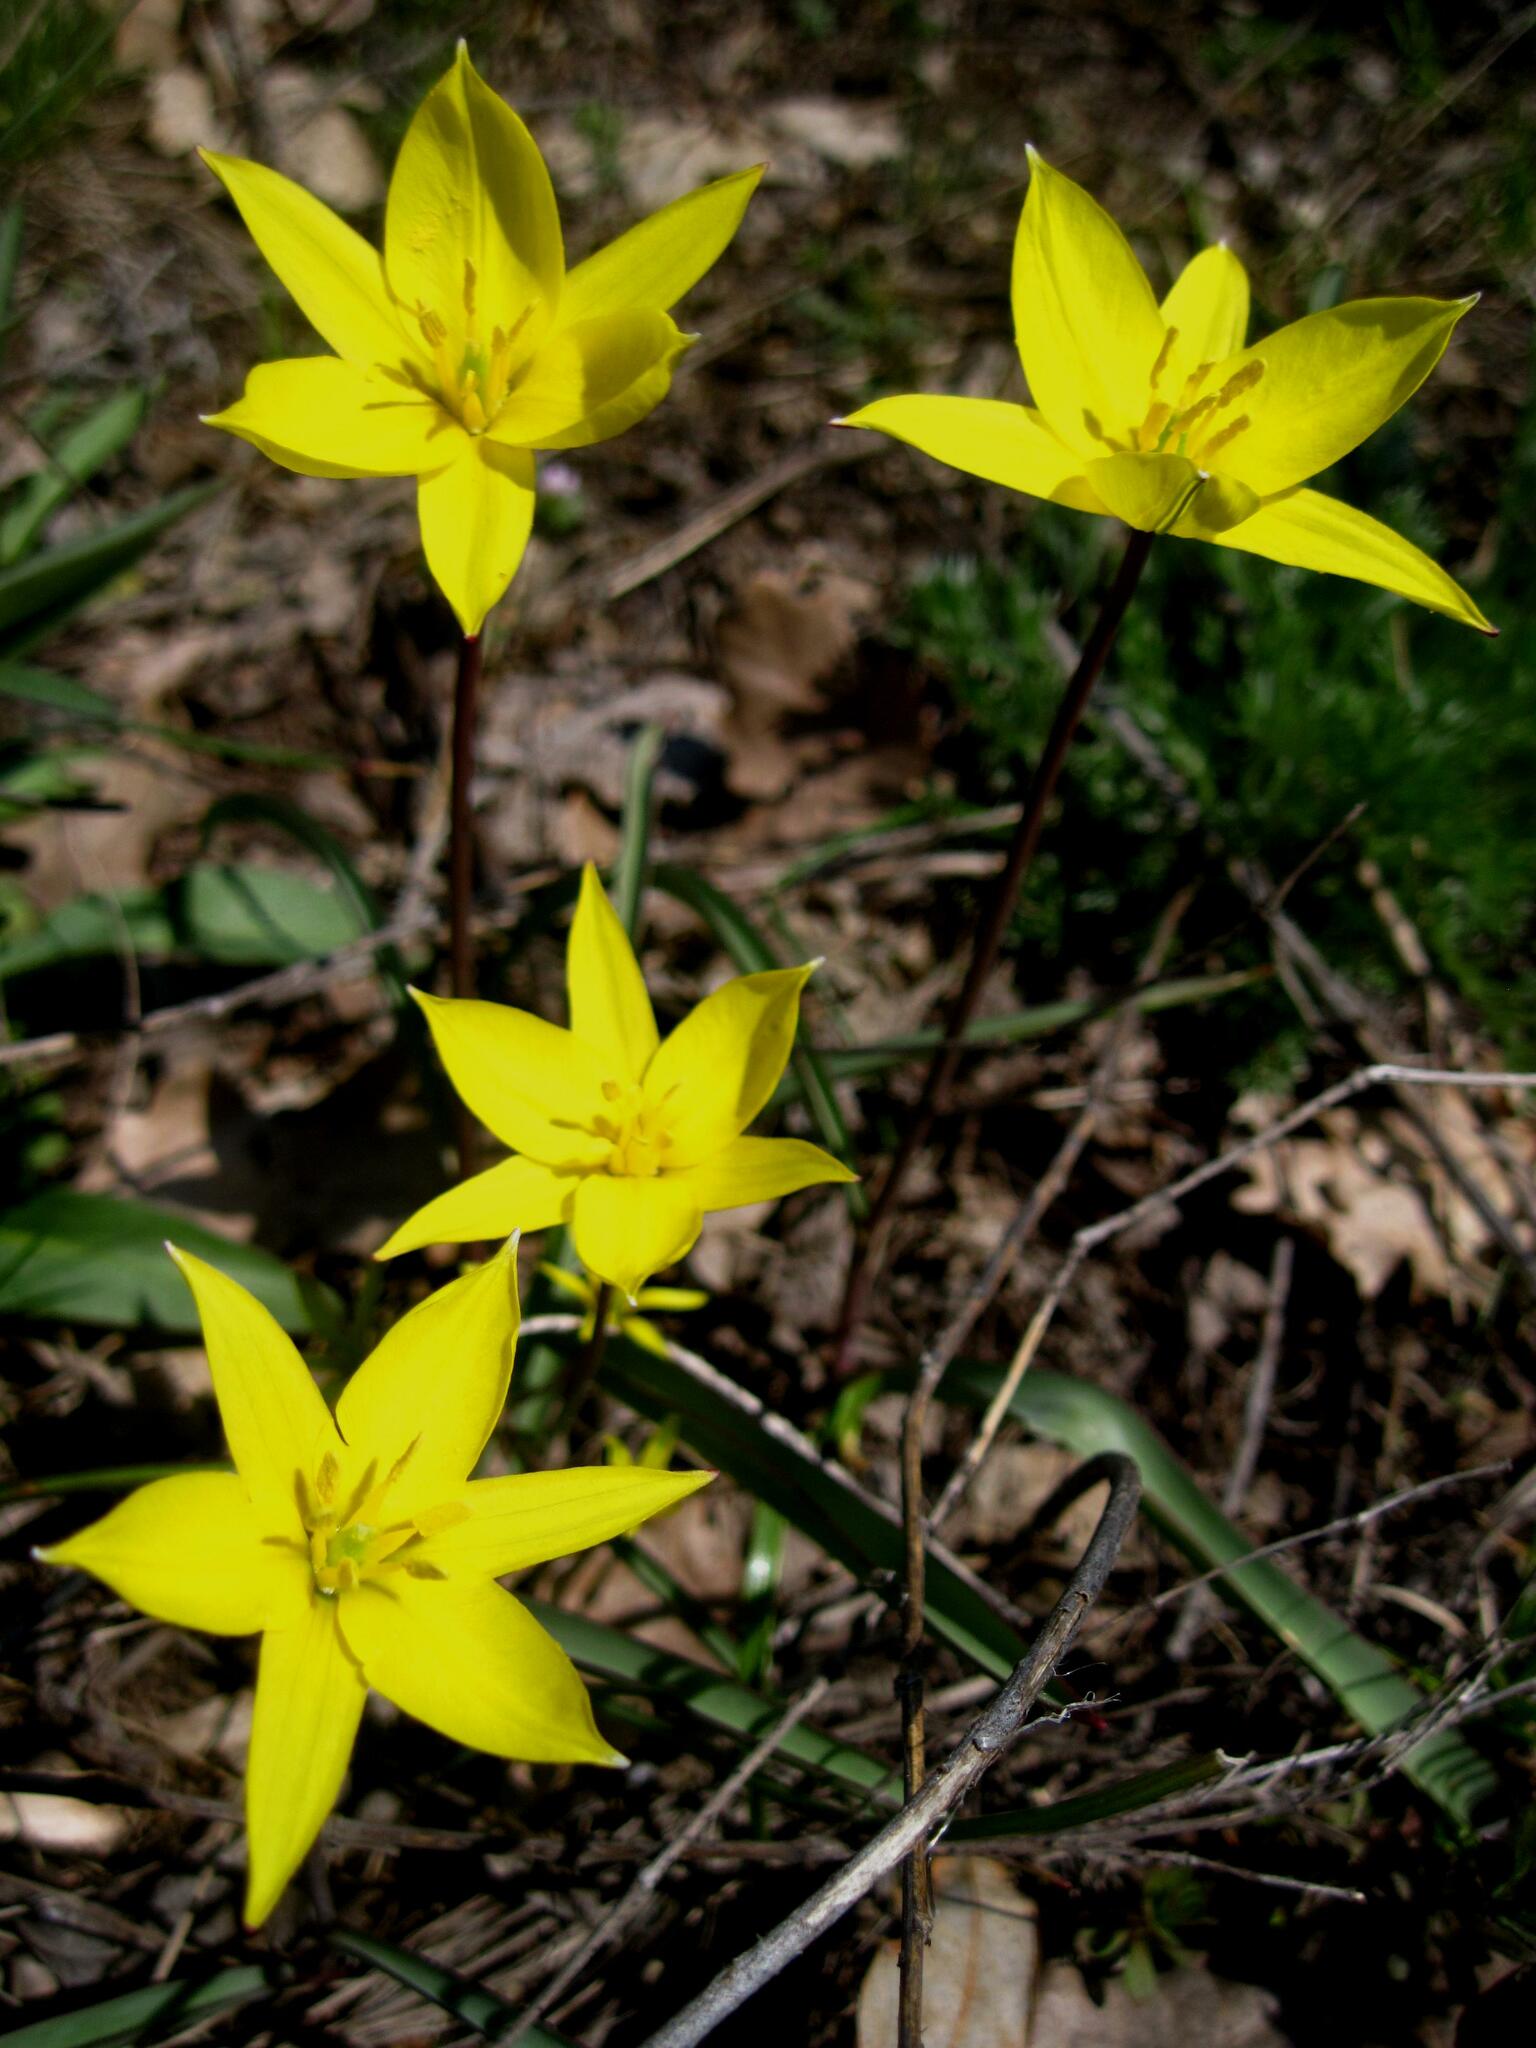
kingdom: Plantae
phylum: Tracheophyta
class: Liliopsida
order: Liliales
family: Liliaceae
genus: Tulipa
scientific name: Tulipa sylvestris
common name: Wild tulip
